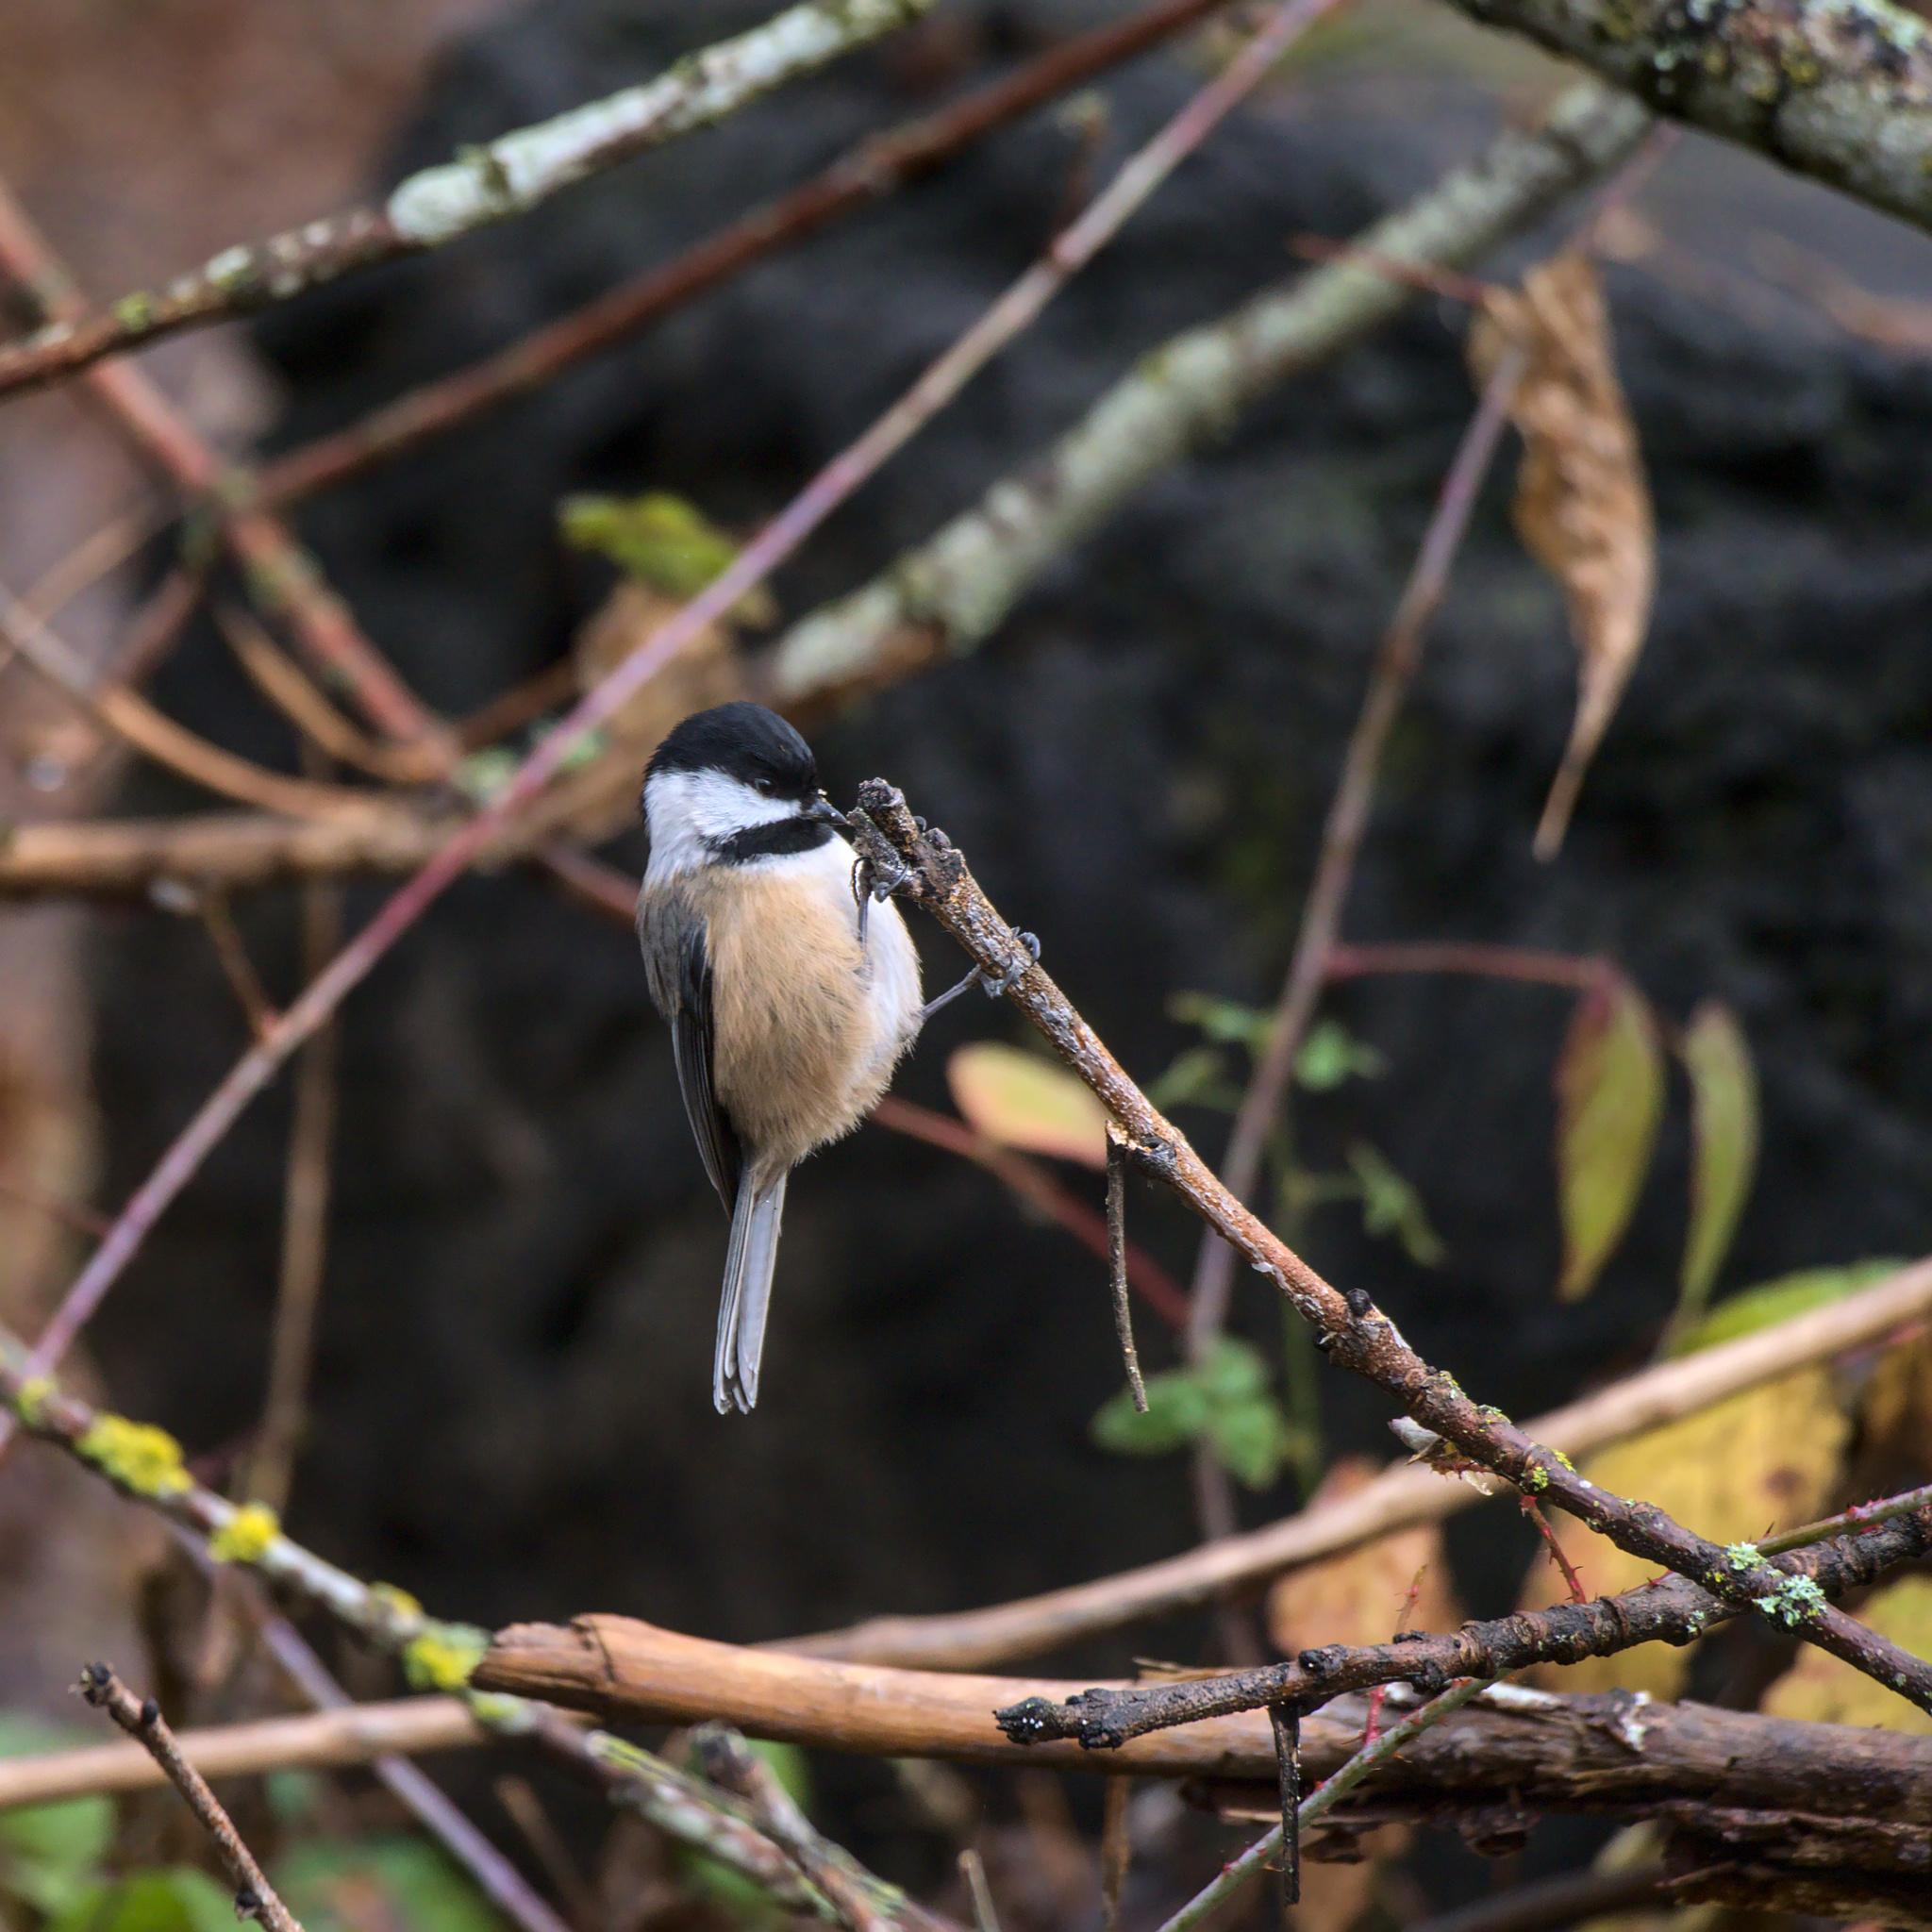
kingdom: Animalia
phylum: Chordata
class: Aves
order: Passeriformes
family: Paridae
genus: Poecile
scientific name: Poecile atricapillus
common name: Black-capped chickadee
